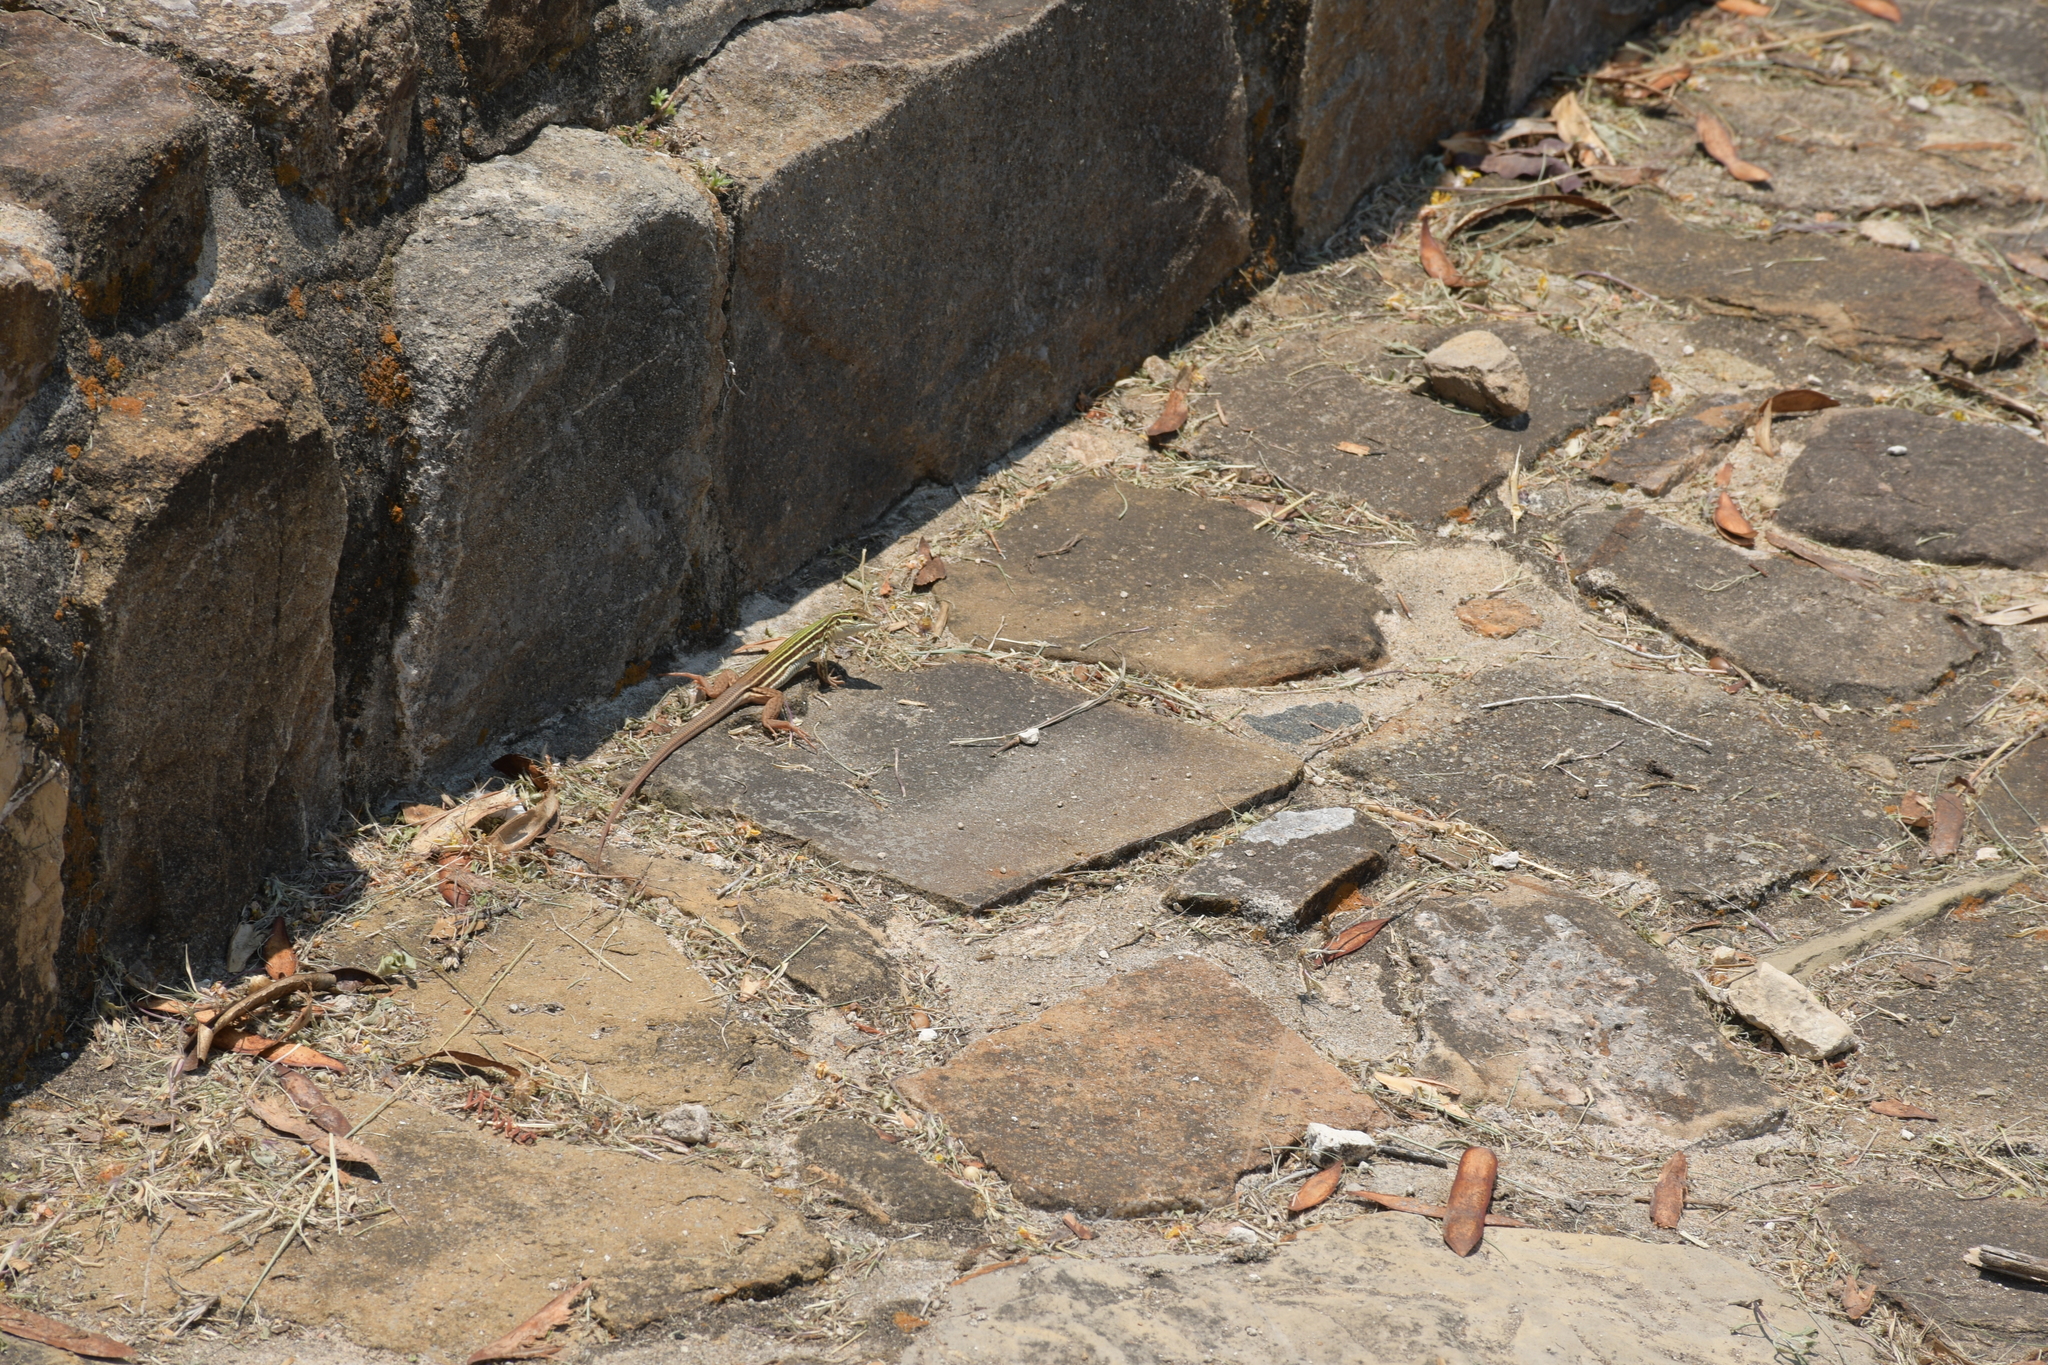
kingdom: Animalia
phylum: Chordata
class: Squamata
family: Teiidae
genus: Aspidoscelis
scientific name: Aspidoscelis deppii
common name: Blackbelly racerunner
